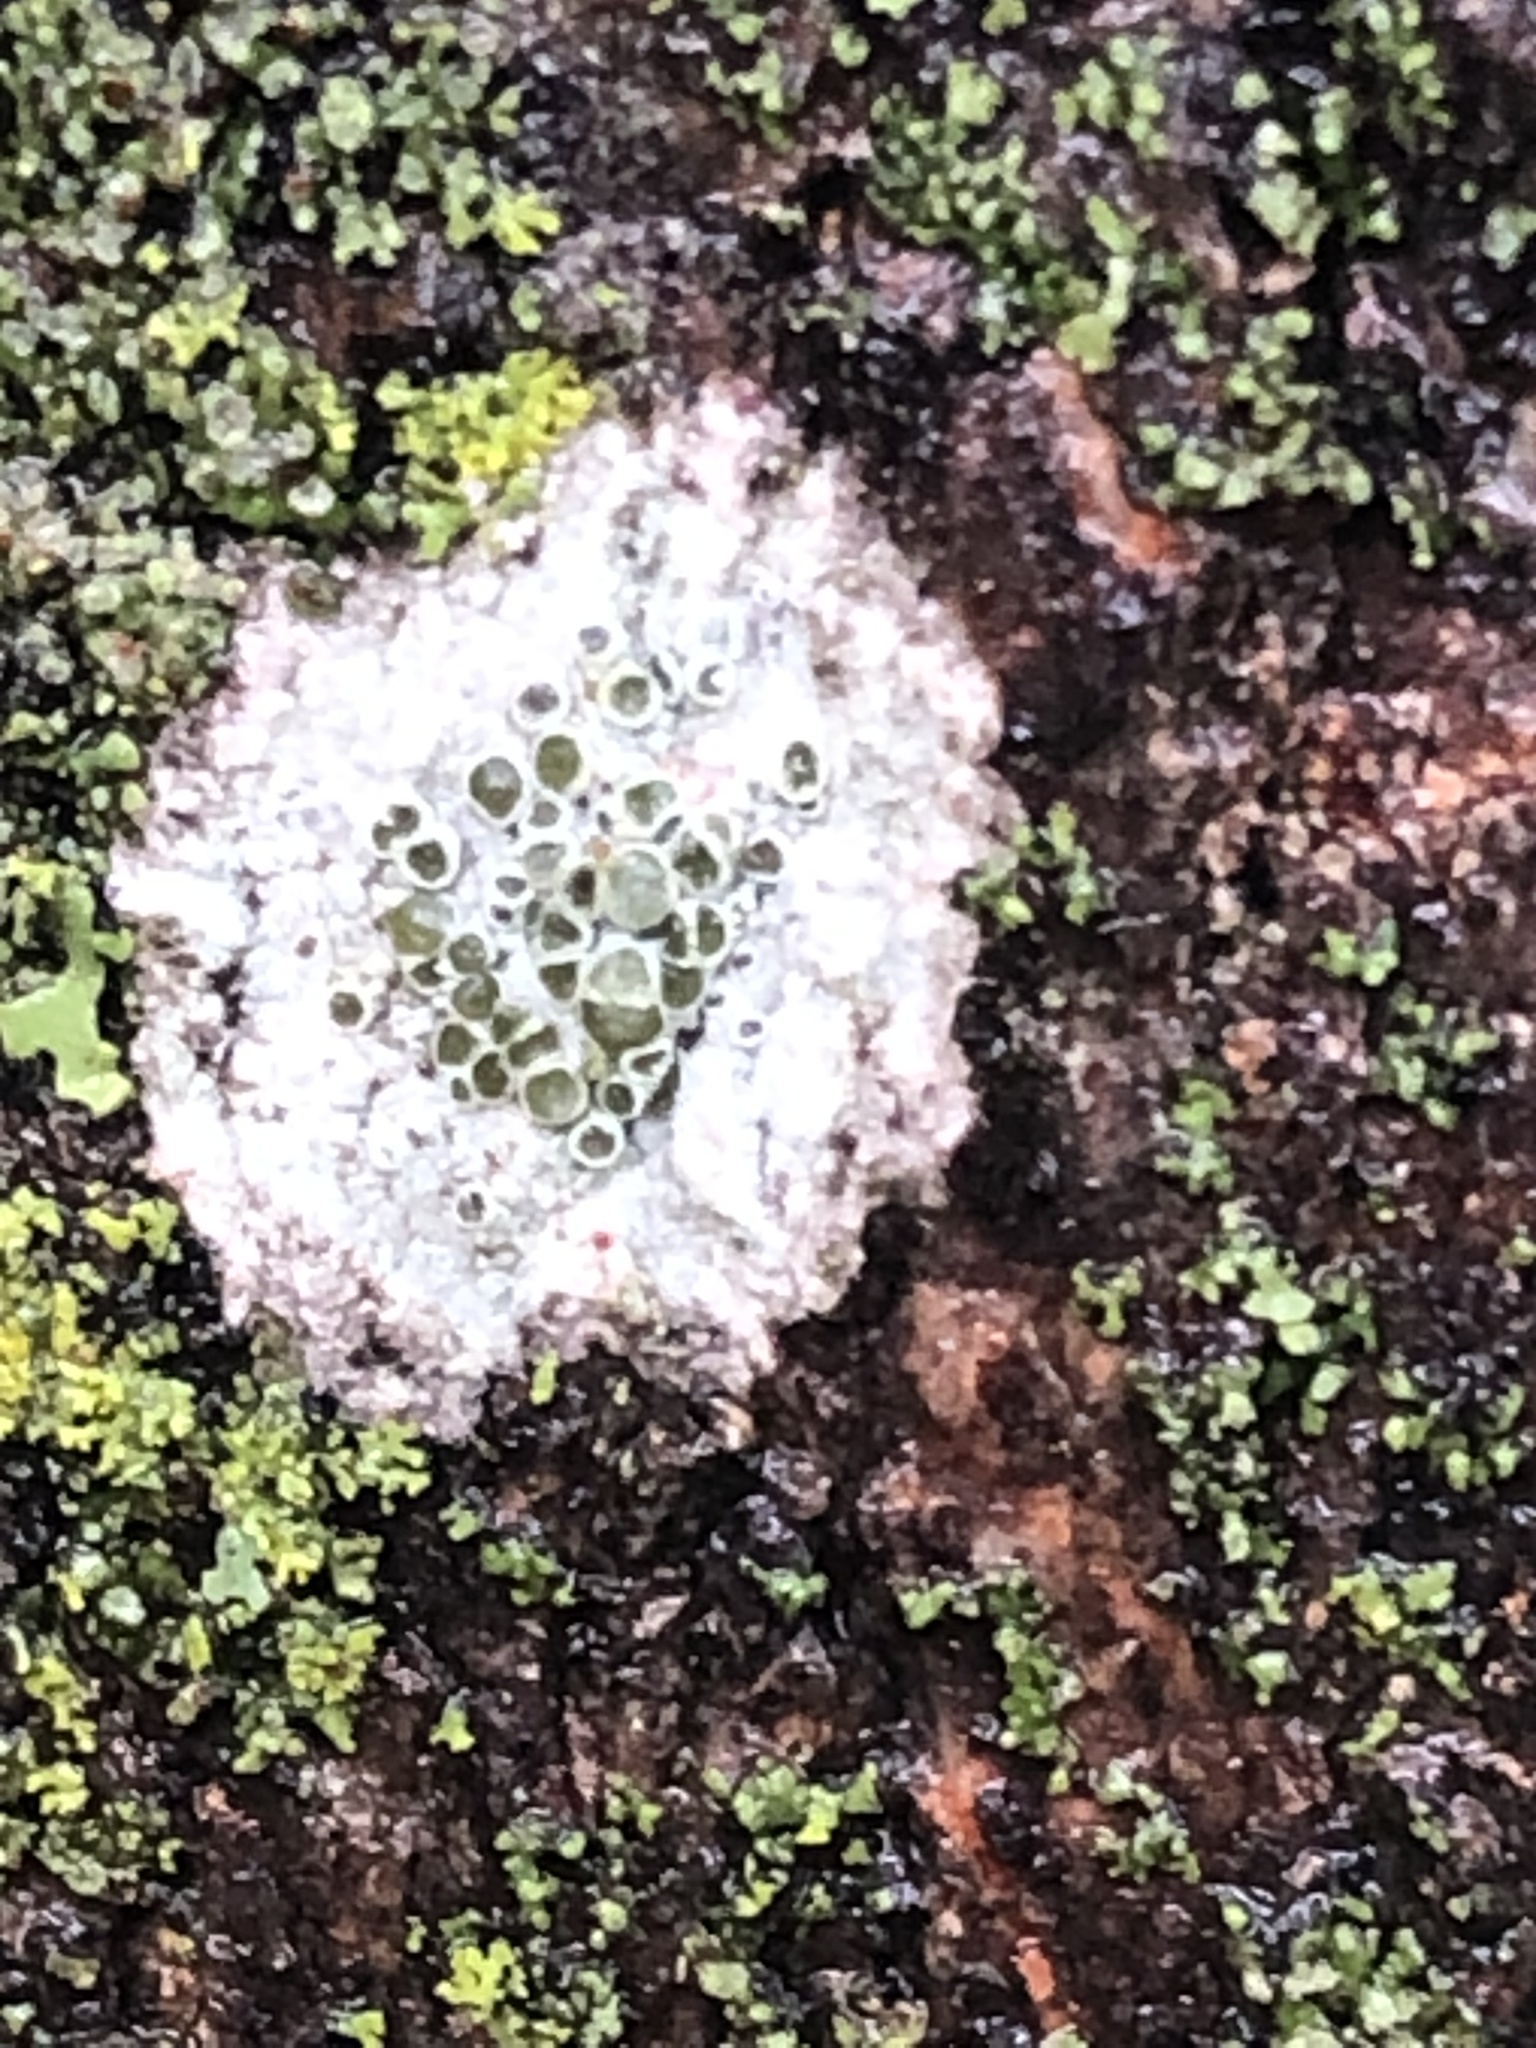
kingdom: Fungi
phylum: Ascomycota
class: Lecanoromycetes
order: Lecanorales
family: Lecanoraceae
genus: Lecanora
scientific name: Lecanora cenisia
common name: Smoky rim lichen
